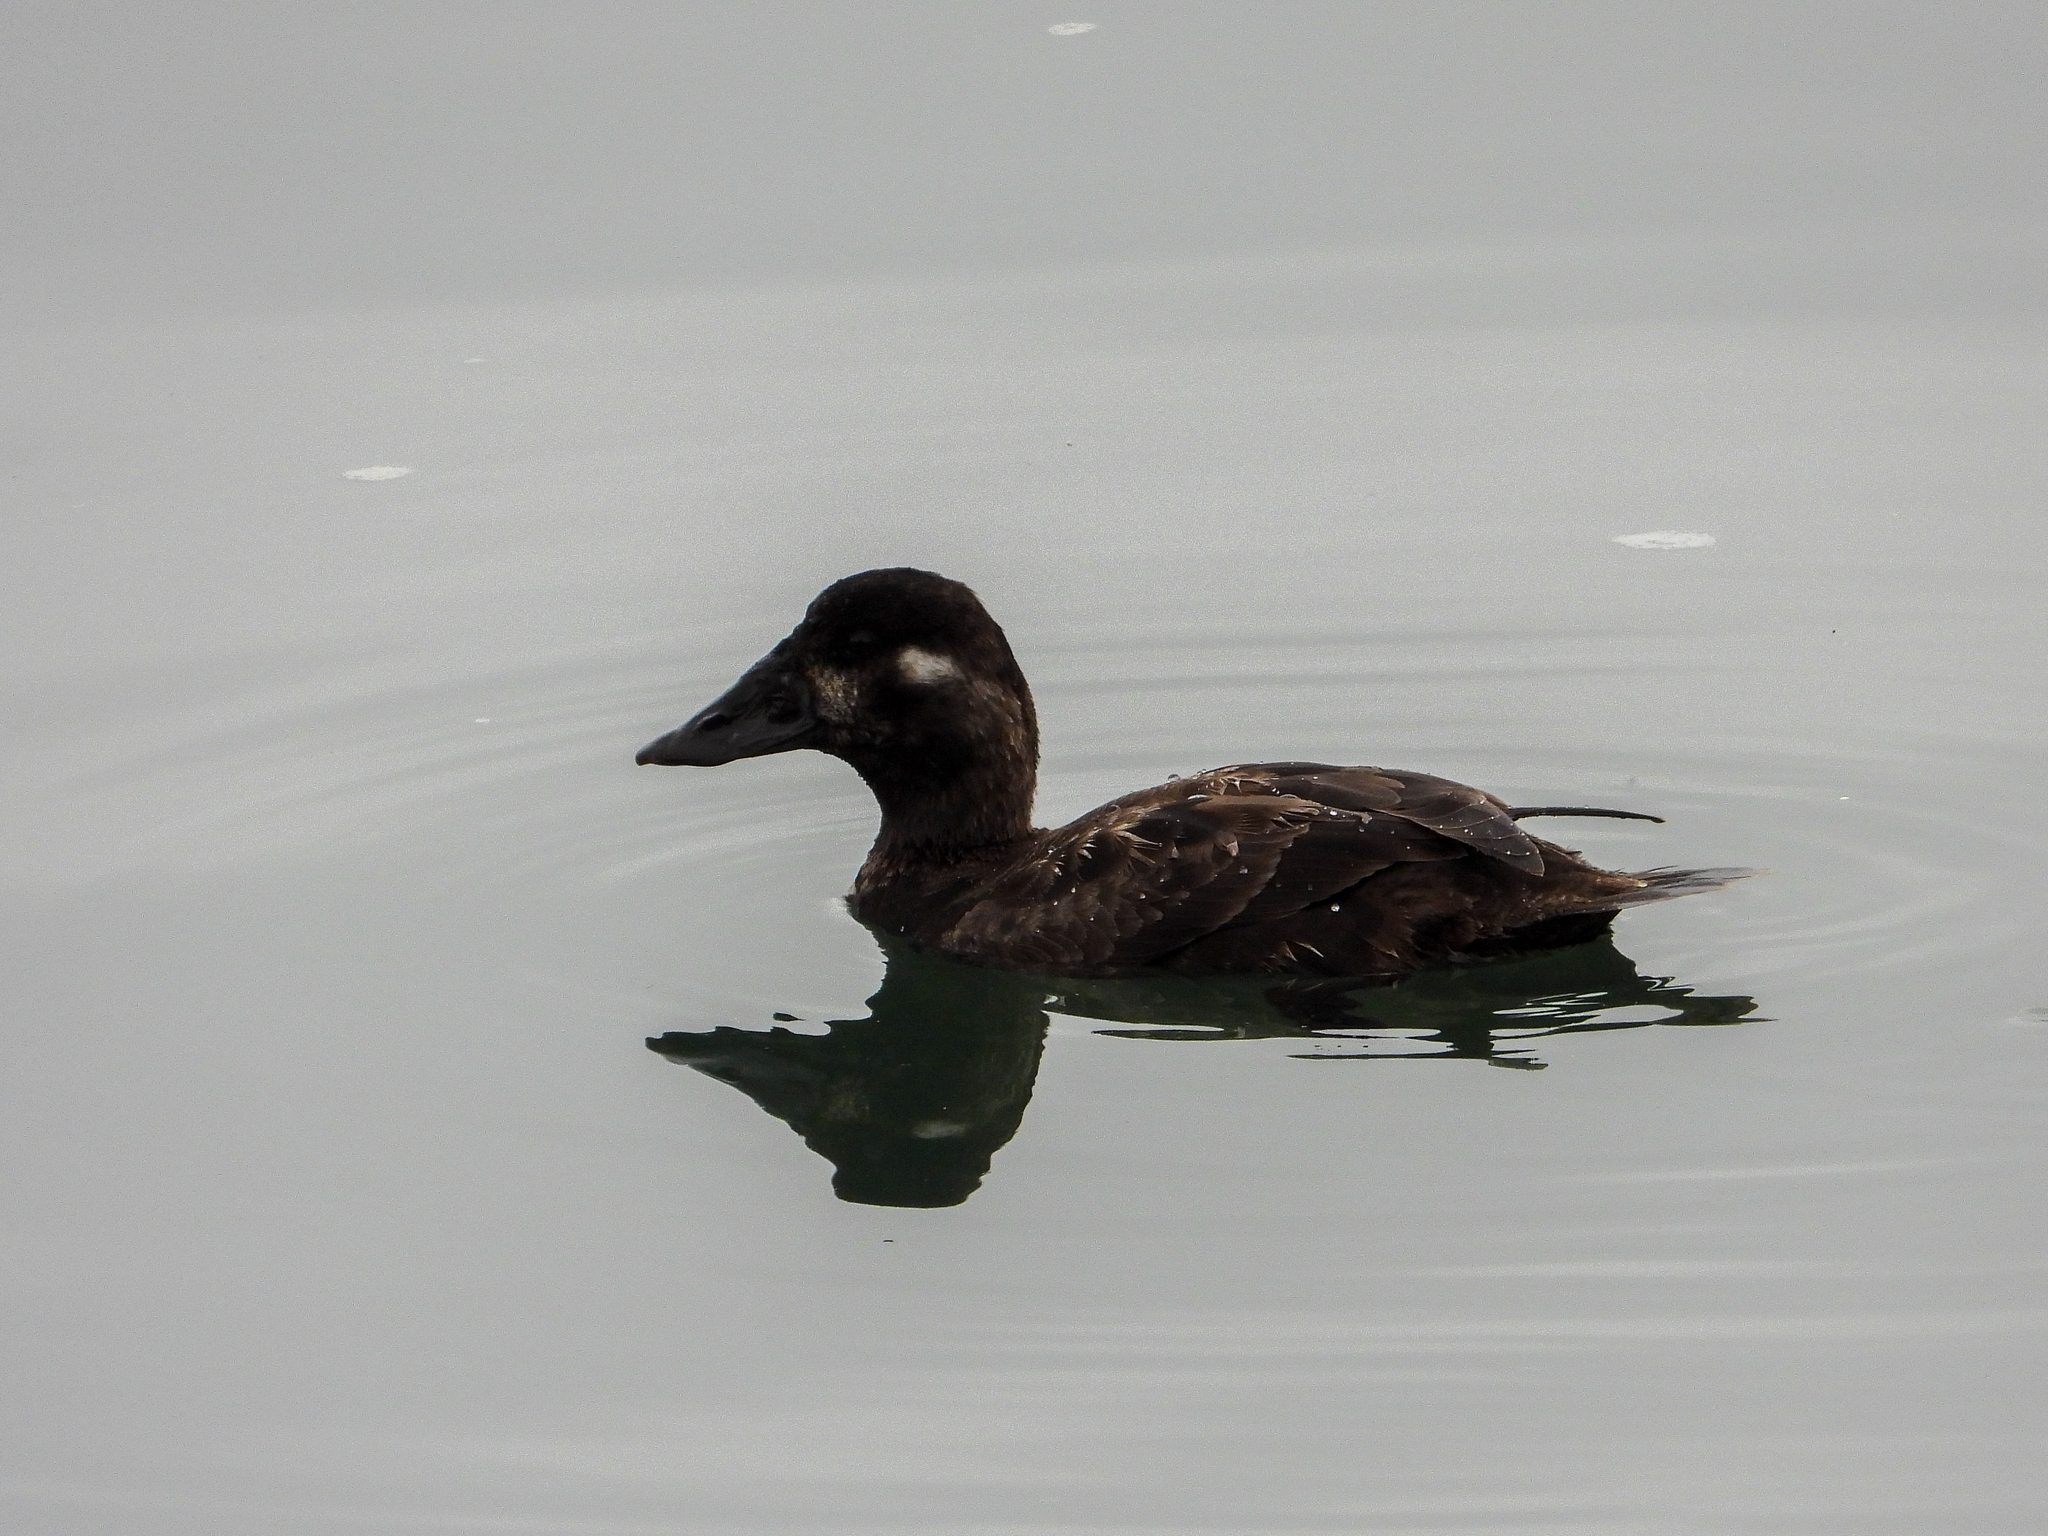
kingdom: Animalia
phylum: Chordata
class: Aves
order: Anseriformes
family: Anatidae
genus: Melanitta
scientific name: Melanitta perspicillata
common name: Surf scoter
